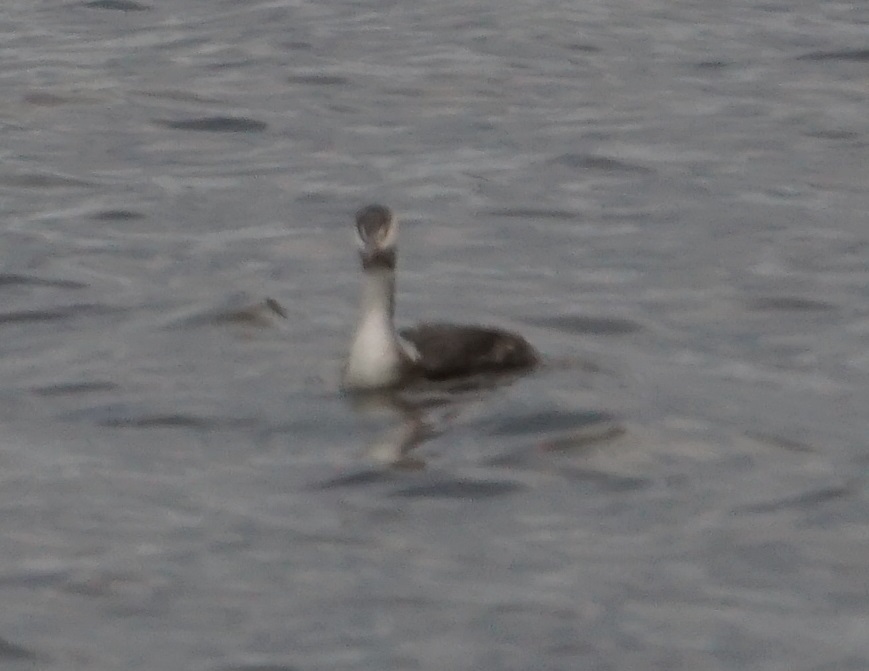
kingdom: Animalia
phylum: Chordata
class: Aves
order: Podicipediformes
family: Podicipedidae
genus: Podiceps
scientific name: Podiceps cristatus
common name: Great crested grebe
